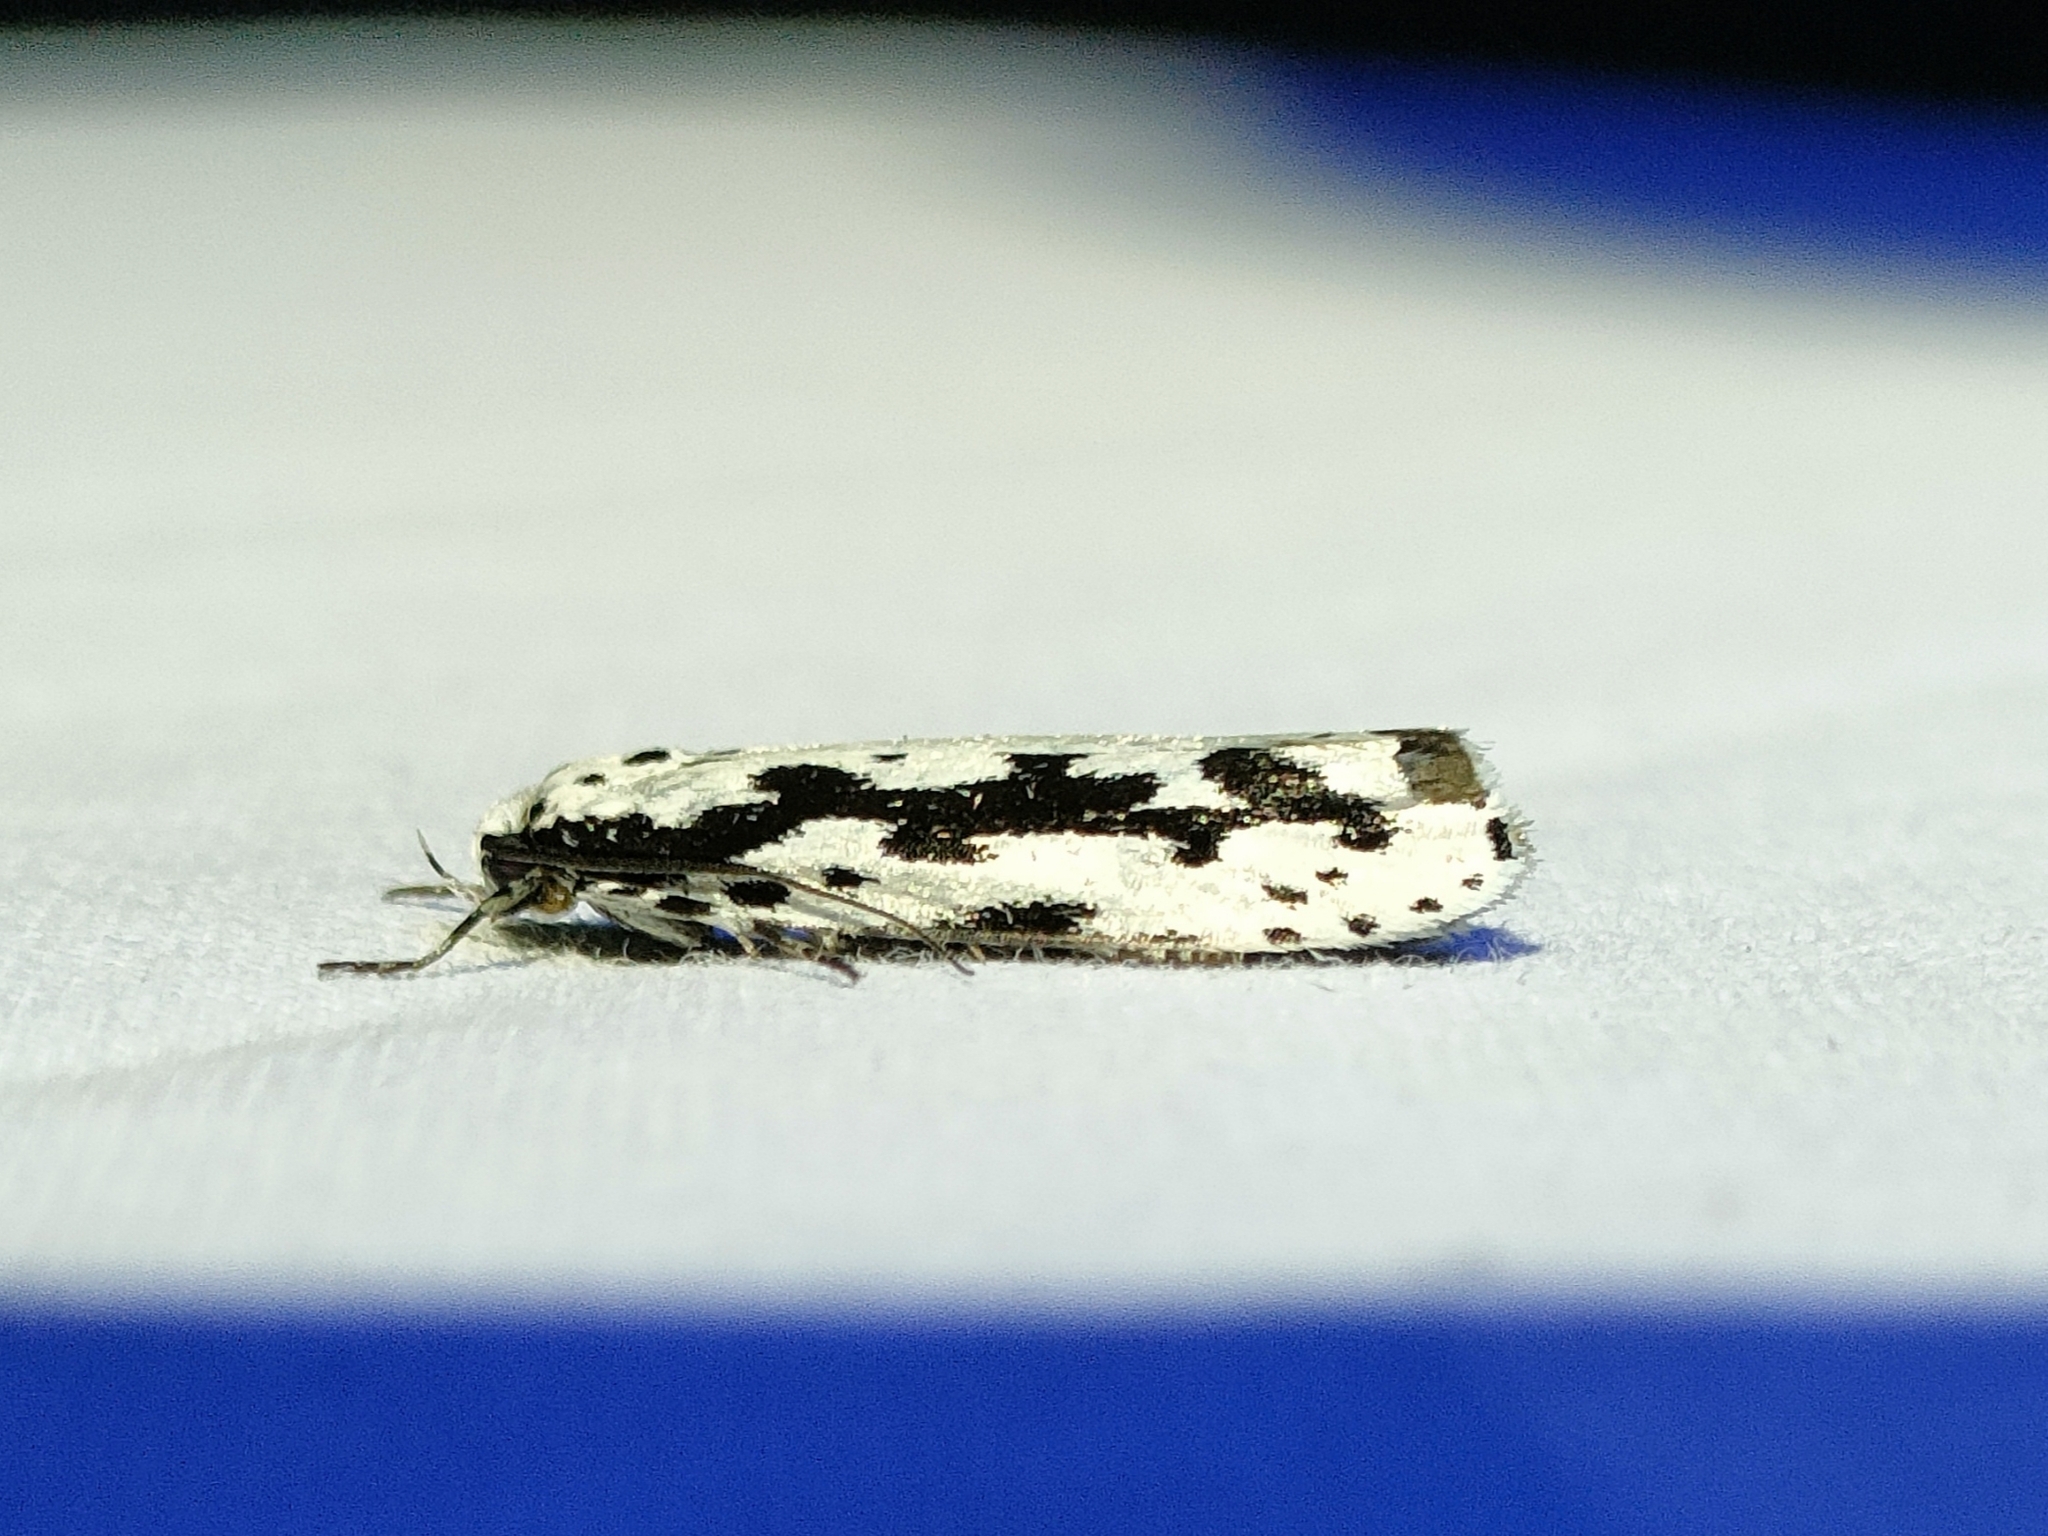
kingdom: Animalia
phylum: Arthropoda
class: Insecta
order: Lepidoptera
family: Ethmiidae
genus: Ethmia
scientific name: Ethmia pusiella
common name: Striped ermel
